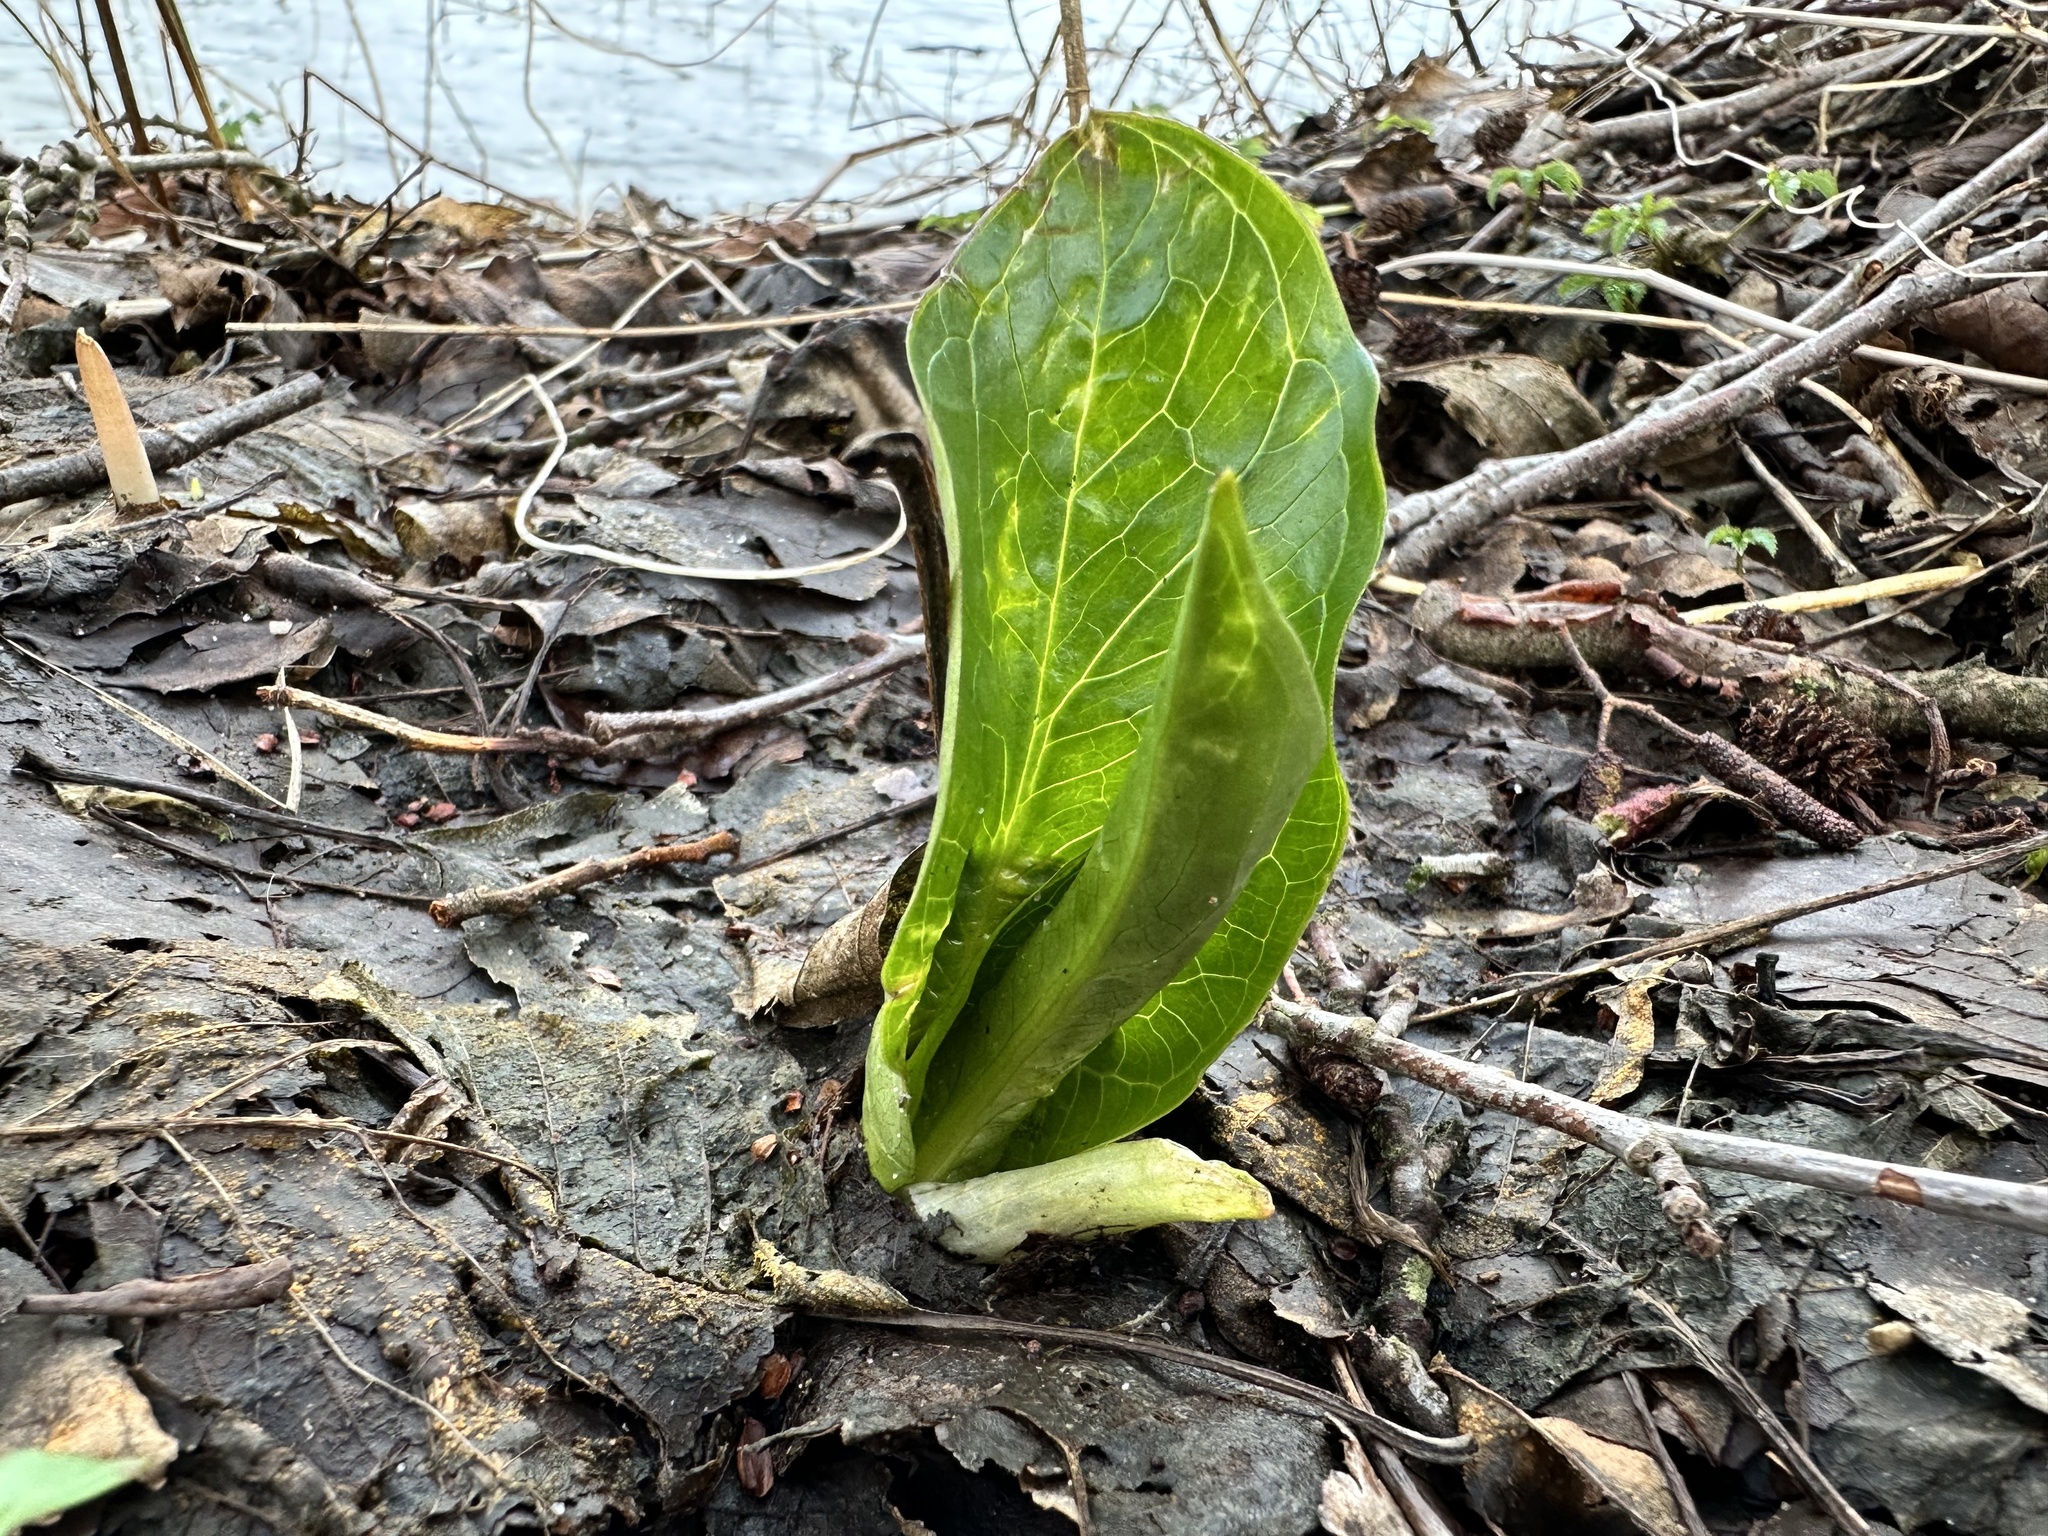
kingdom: Plantae
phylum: Tracheophyta
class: Liliopsida
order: Alismatales
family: Araceae
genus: Arum
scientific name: Arum maculatum
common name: Lords-and-ladies
